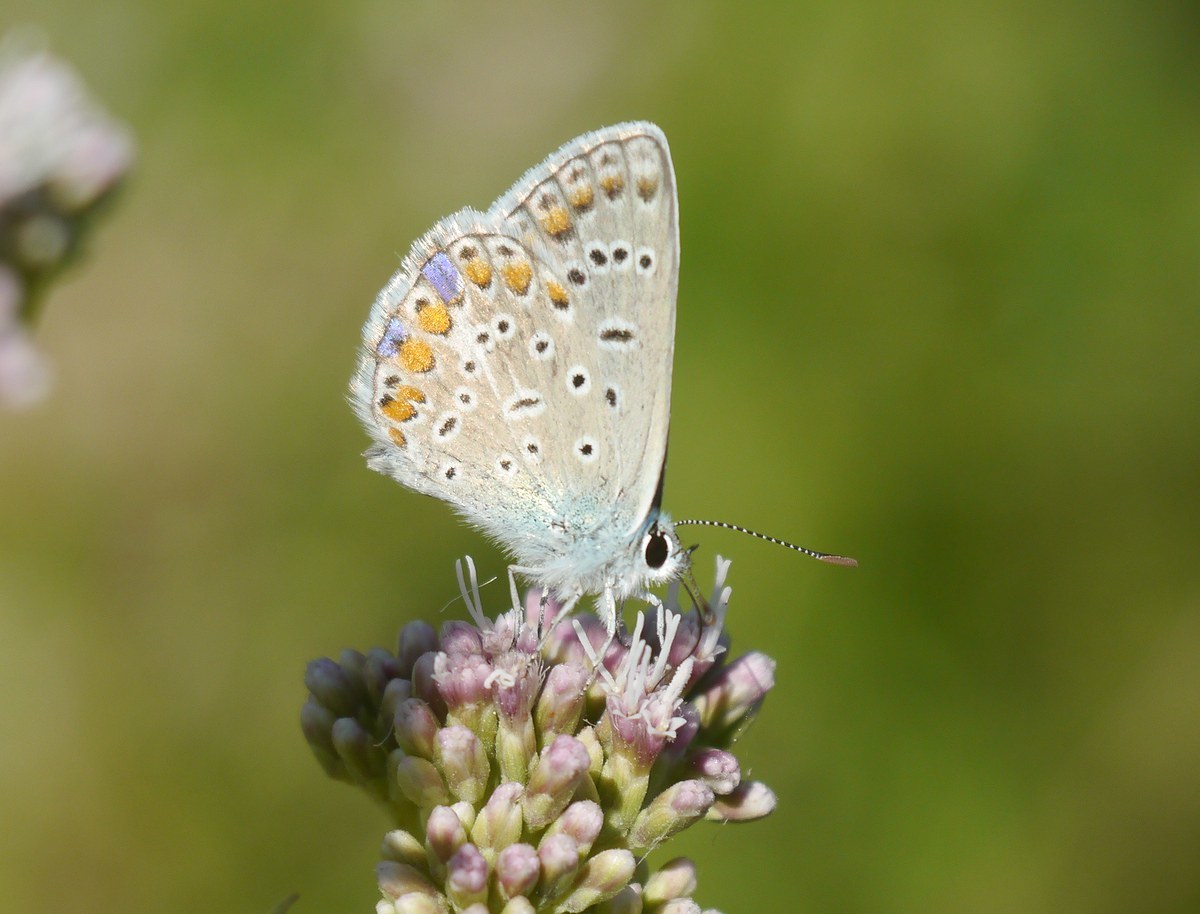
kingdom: Animalia
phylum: Arthropoda
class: Insecta
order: Lepidoptera
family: Lycaenidae
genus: Polyommatus
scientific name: Polyommatus icarus
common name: Common blue
